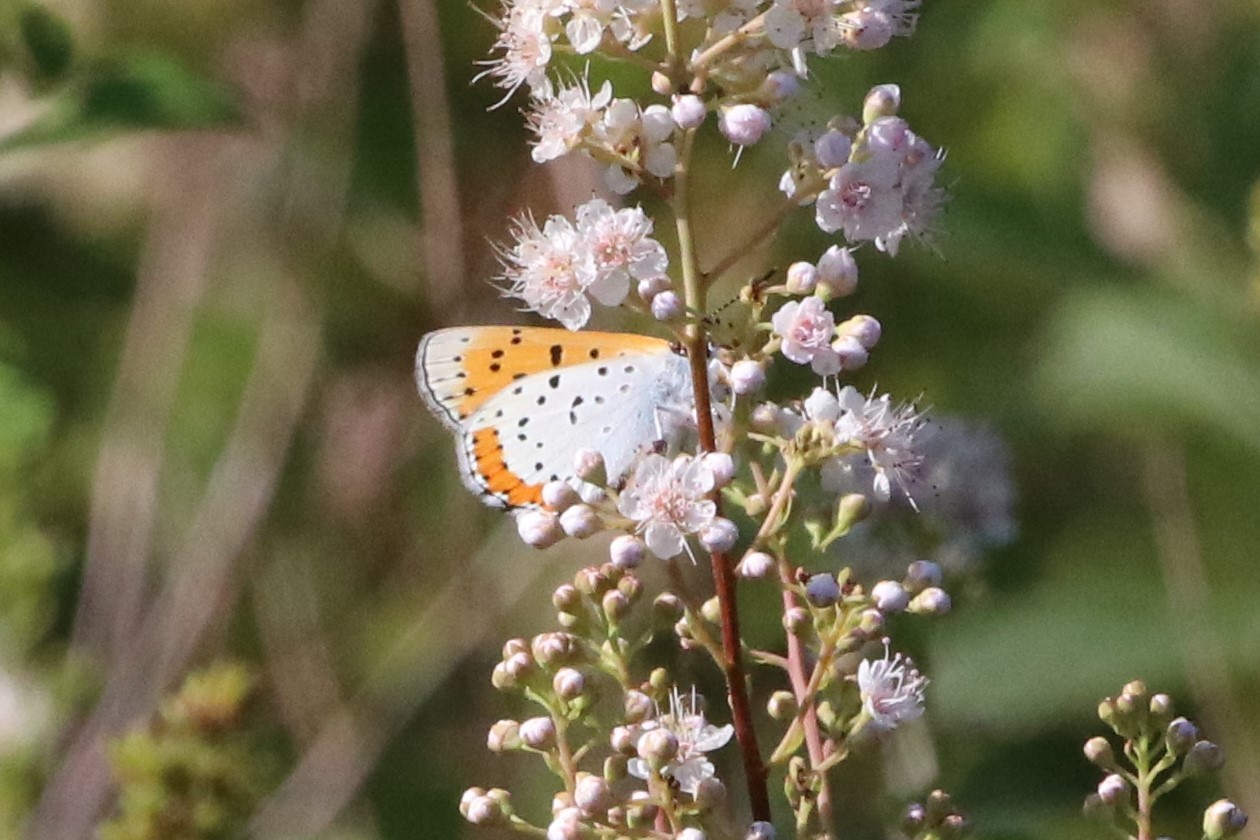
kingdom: Animalia
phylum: Arthropoda
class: Insecta
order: Lepidoptera
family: Lycaenidae
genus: Tharsalea
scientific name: Tharsalea hyllus
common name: Bronze copper
